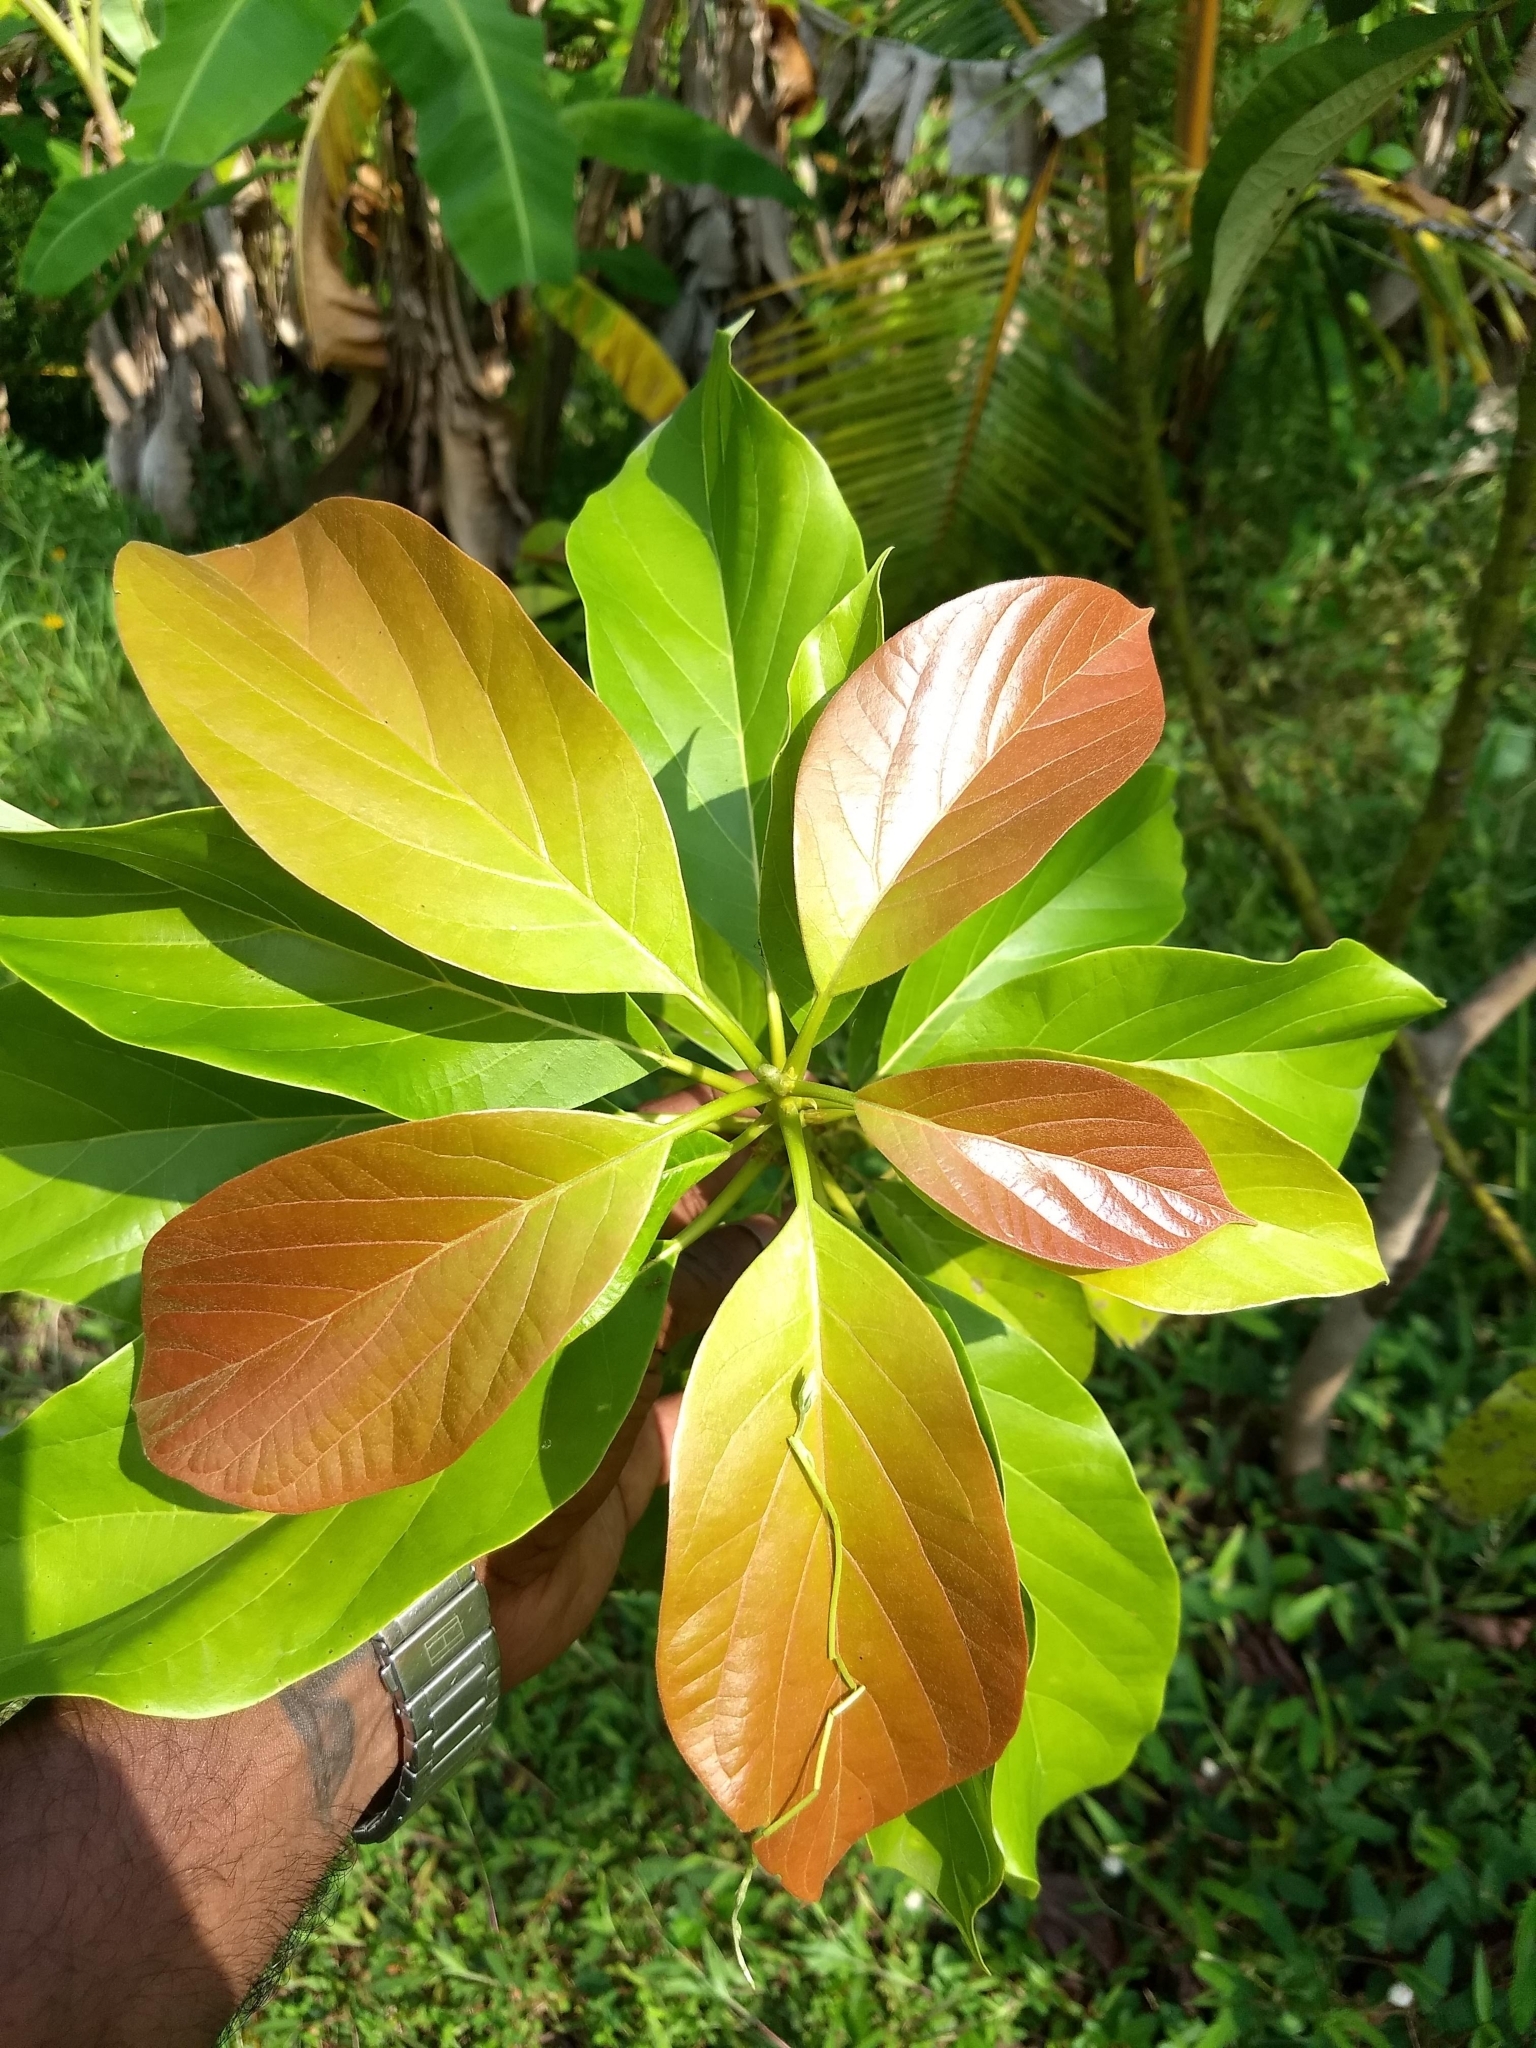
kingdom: Plantae
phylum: Tracheophyta
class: Magnoliopsida
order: Laurales
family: Lauraceae
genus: Persea
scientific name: Persea americana
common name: Avocado
